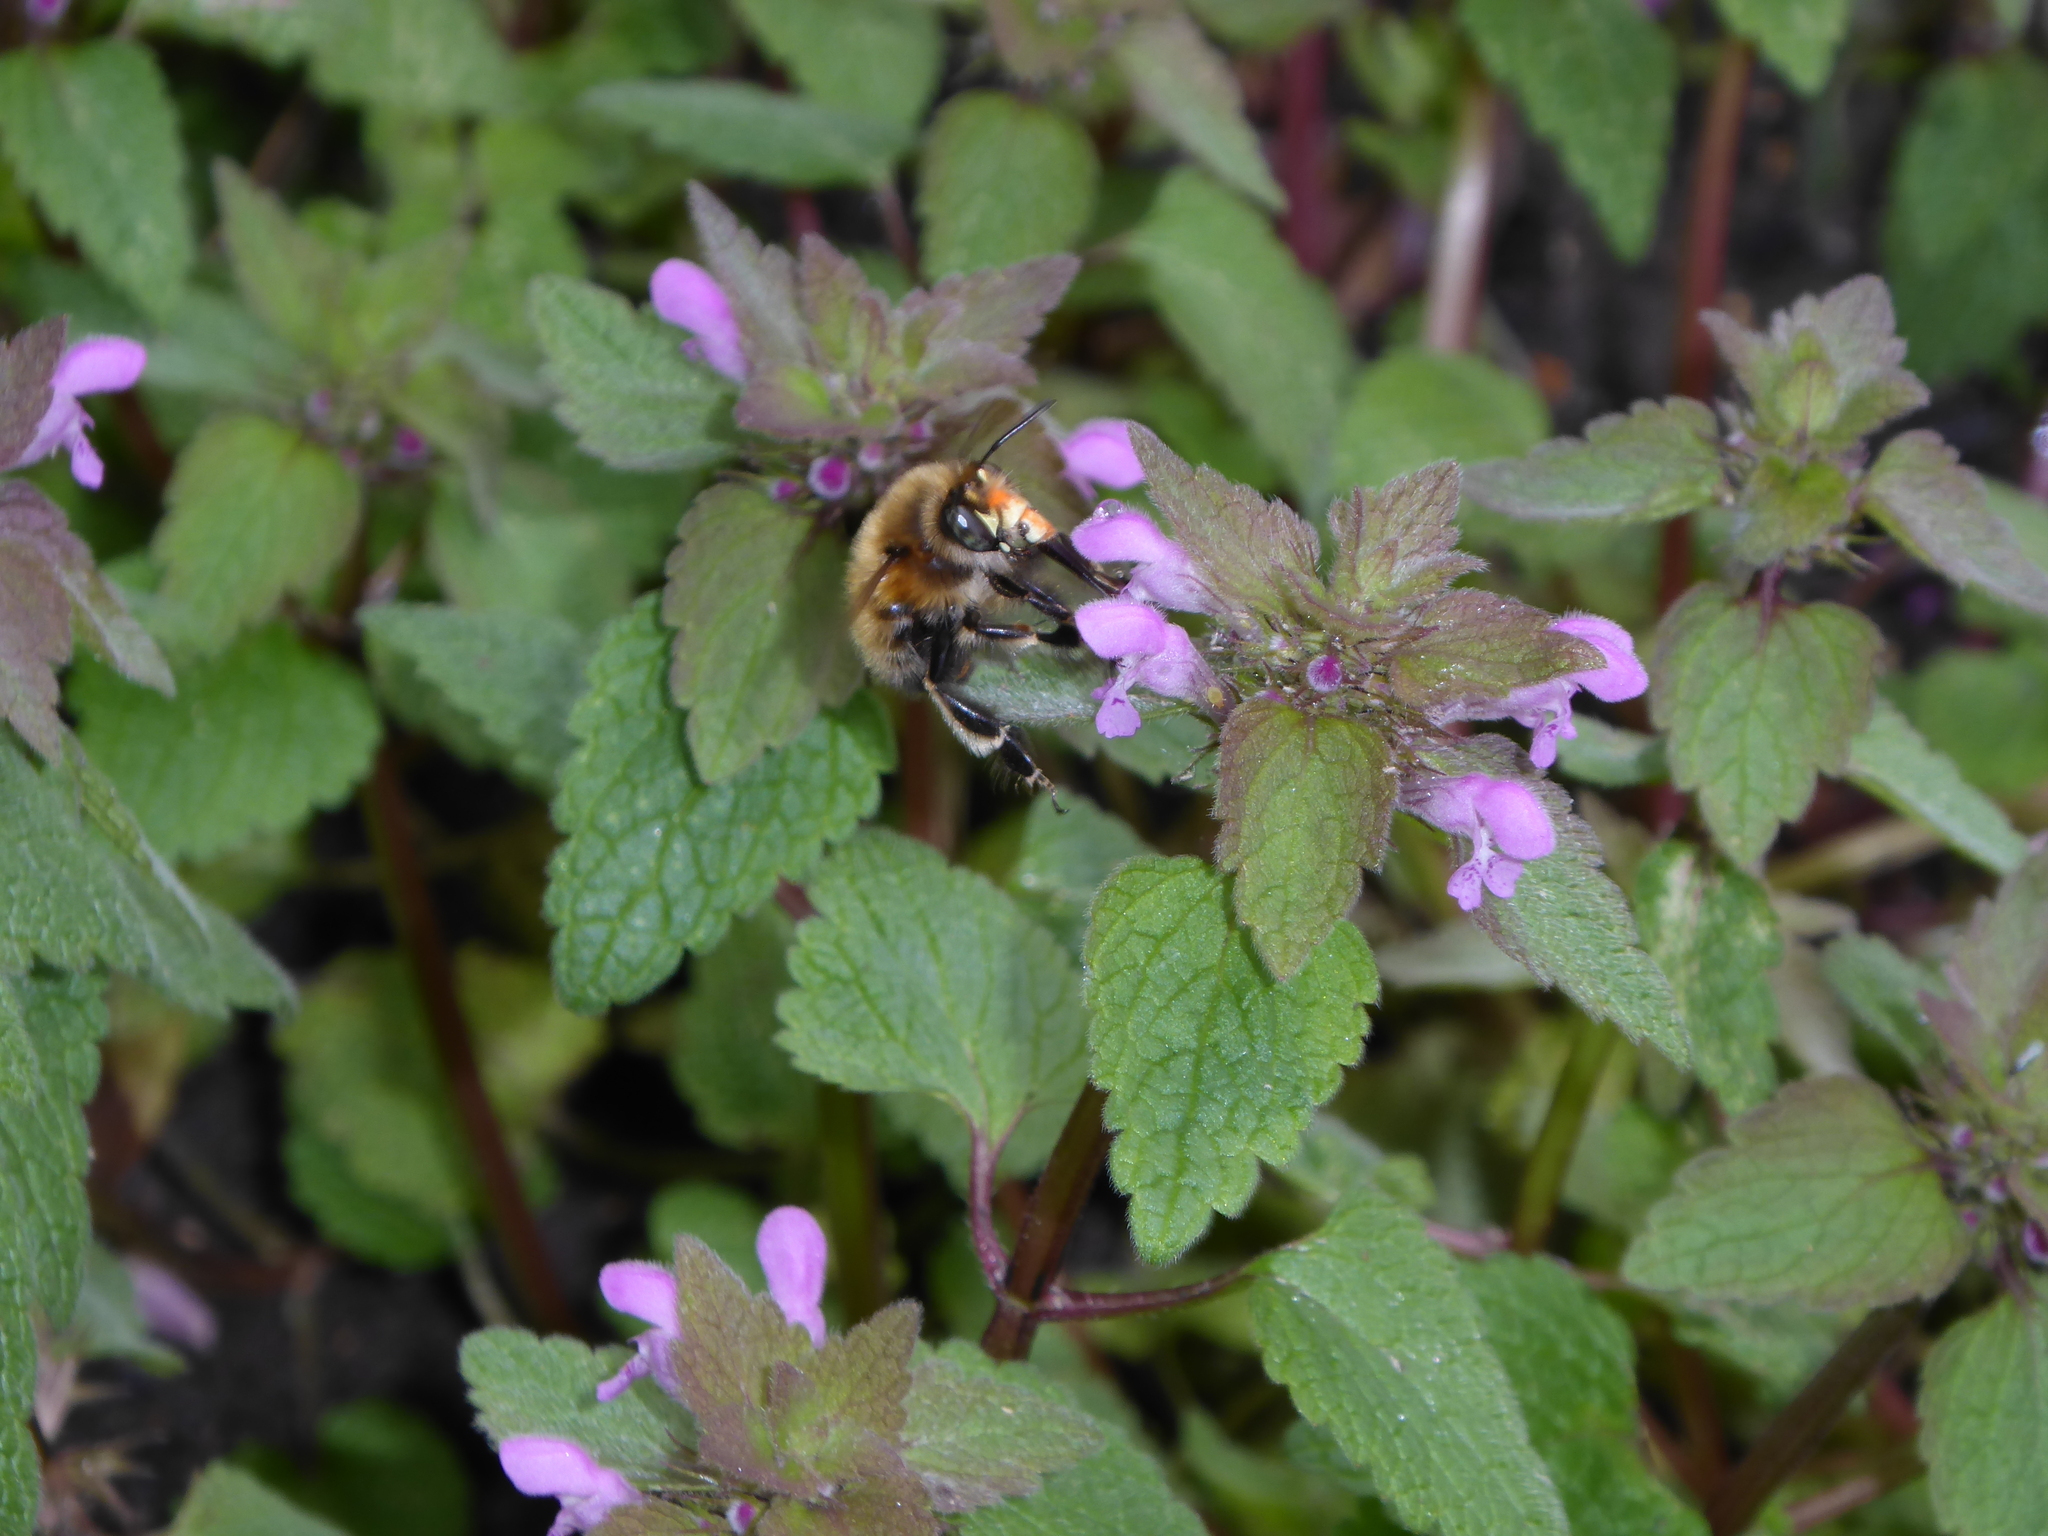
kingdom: Animalia
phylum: Arthropoda
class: Insecta
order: Hymenoptera
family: Apidae
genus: Anthophora
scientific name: Anthophora plumipes
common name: Hairy-footed flower bee
